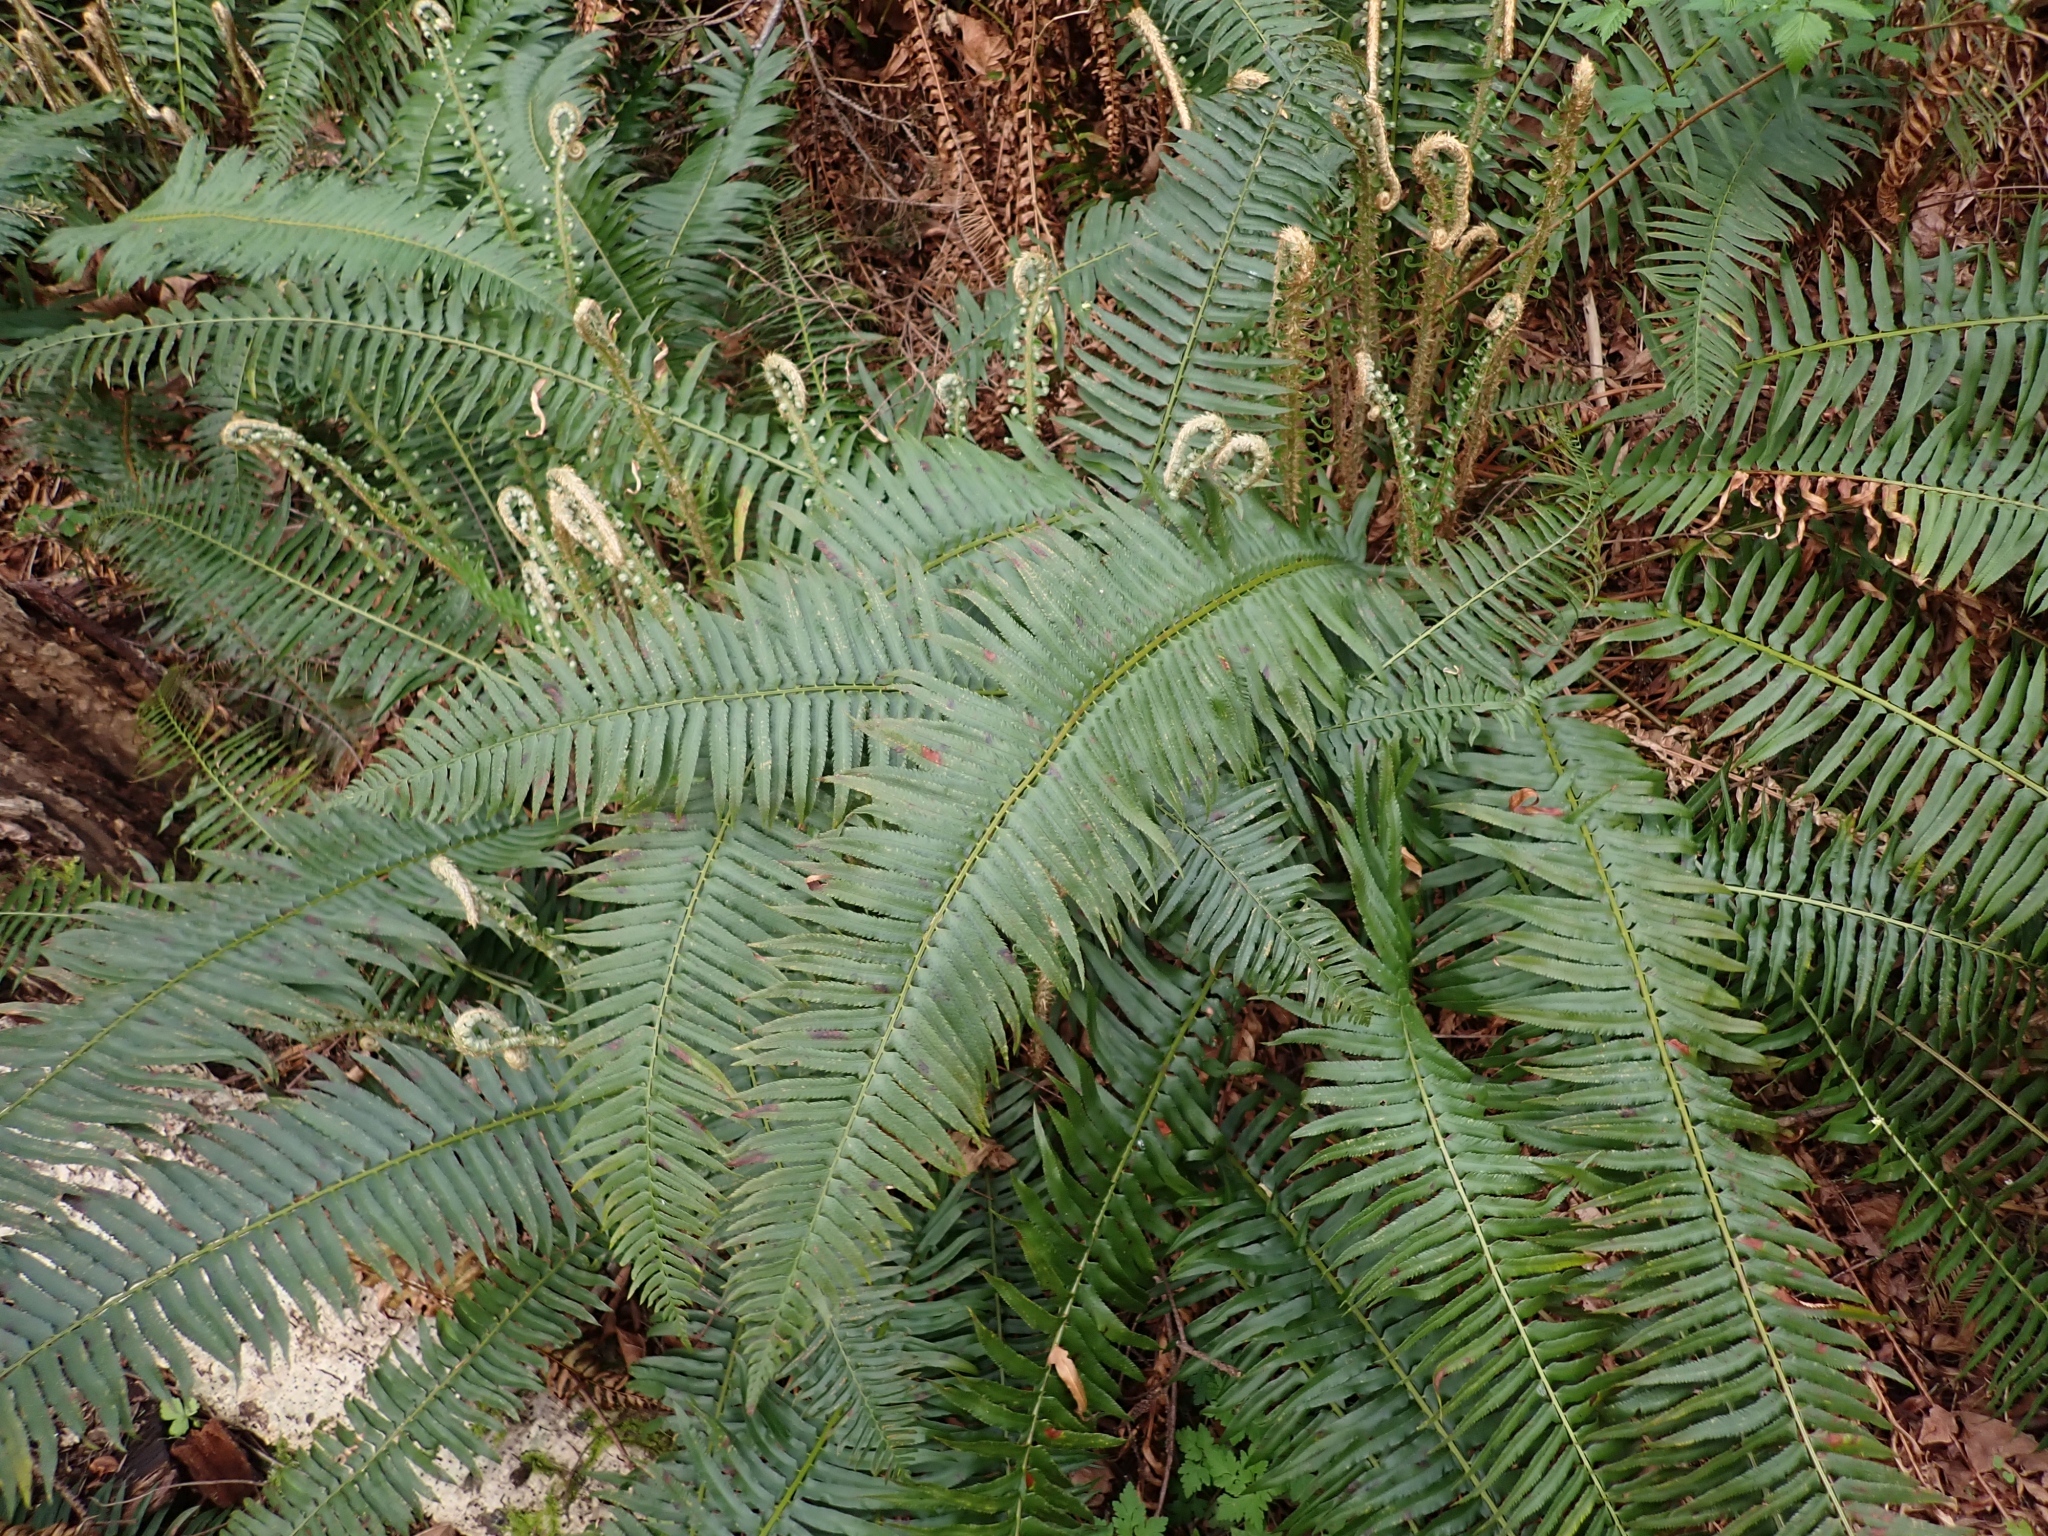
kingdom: Plantae
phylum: Tracheophyta
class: Polypodiopsida
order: Polypodiales
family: Dryopteridaceae
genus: Polystichum
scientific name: Polystichum munitum
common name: Western sword-fern
